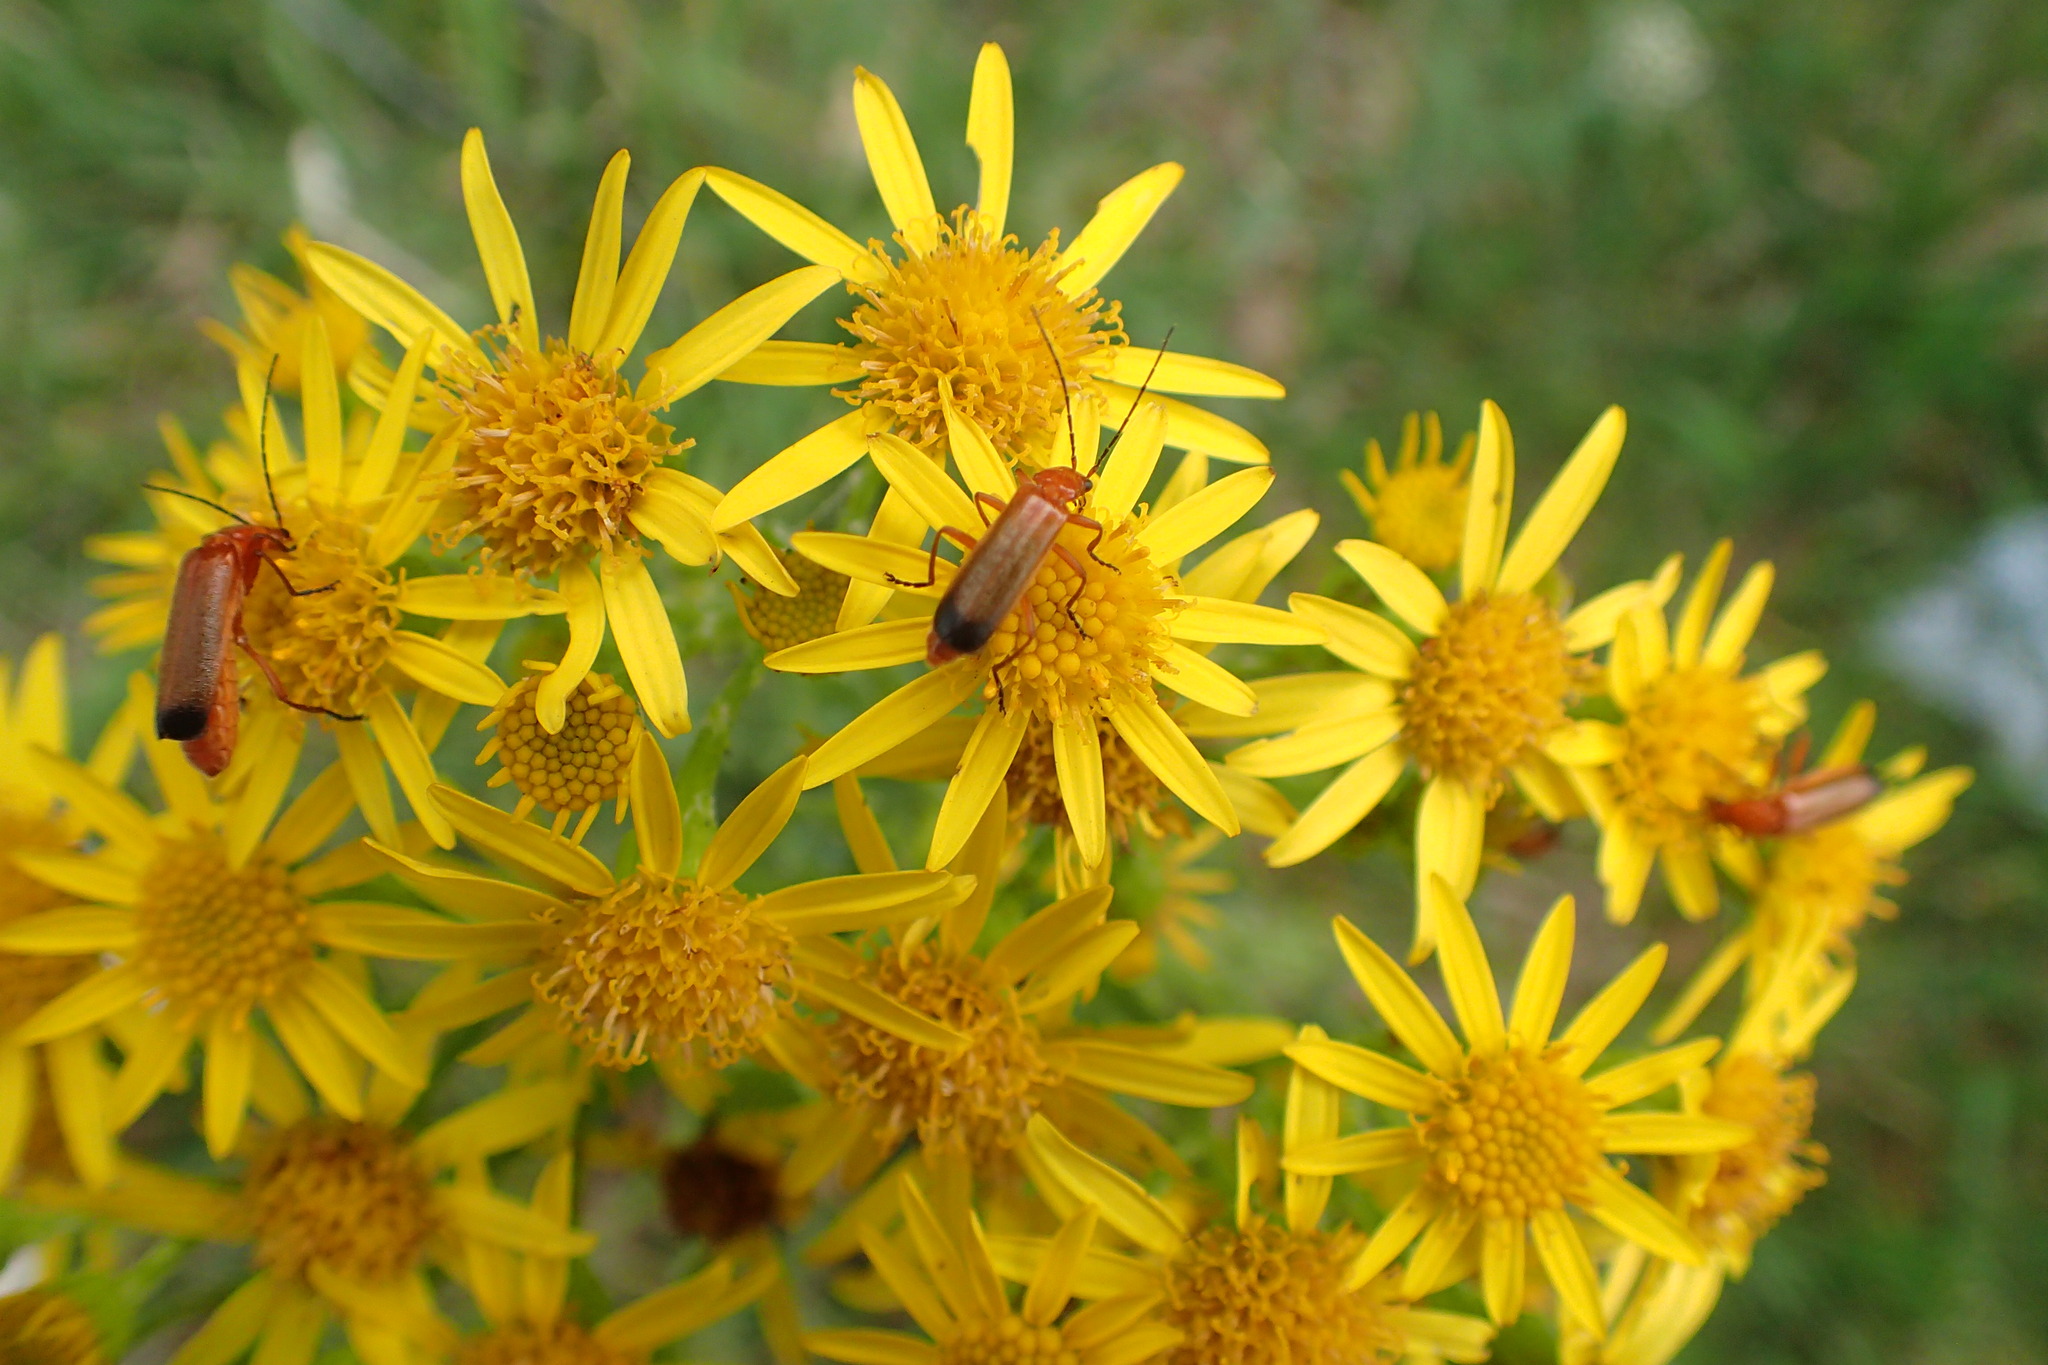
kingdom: Animalia
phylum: Arthropoda
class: Insecta
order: Coleoptera
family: Cantharidae
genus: Rhagonycha
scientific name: Rhagonycha fulva
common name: Common red soldier beetle
